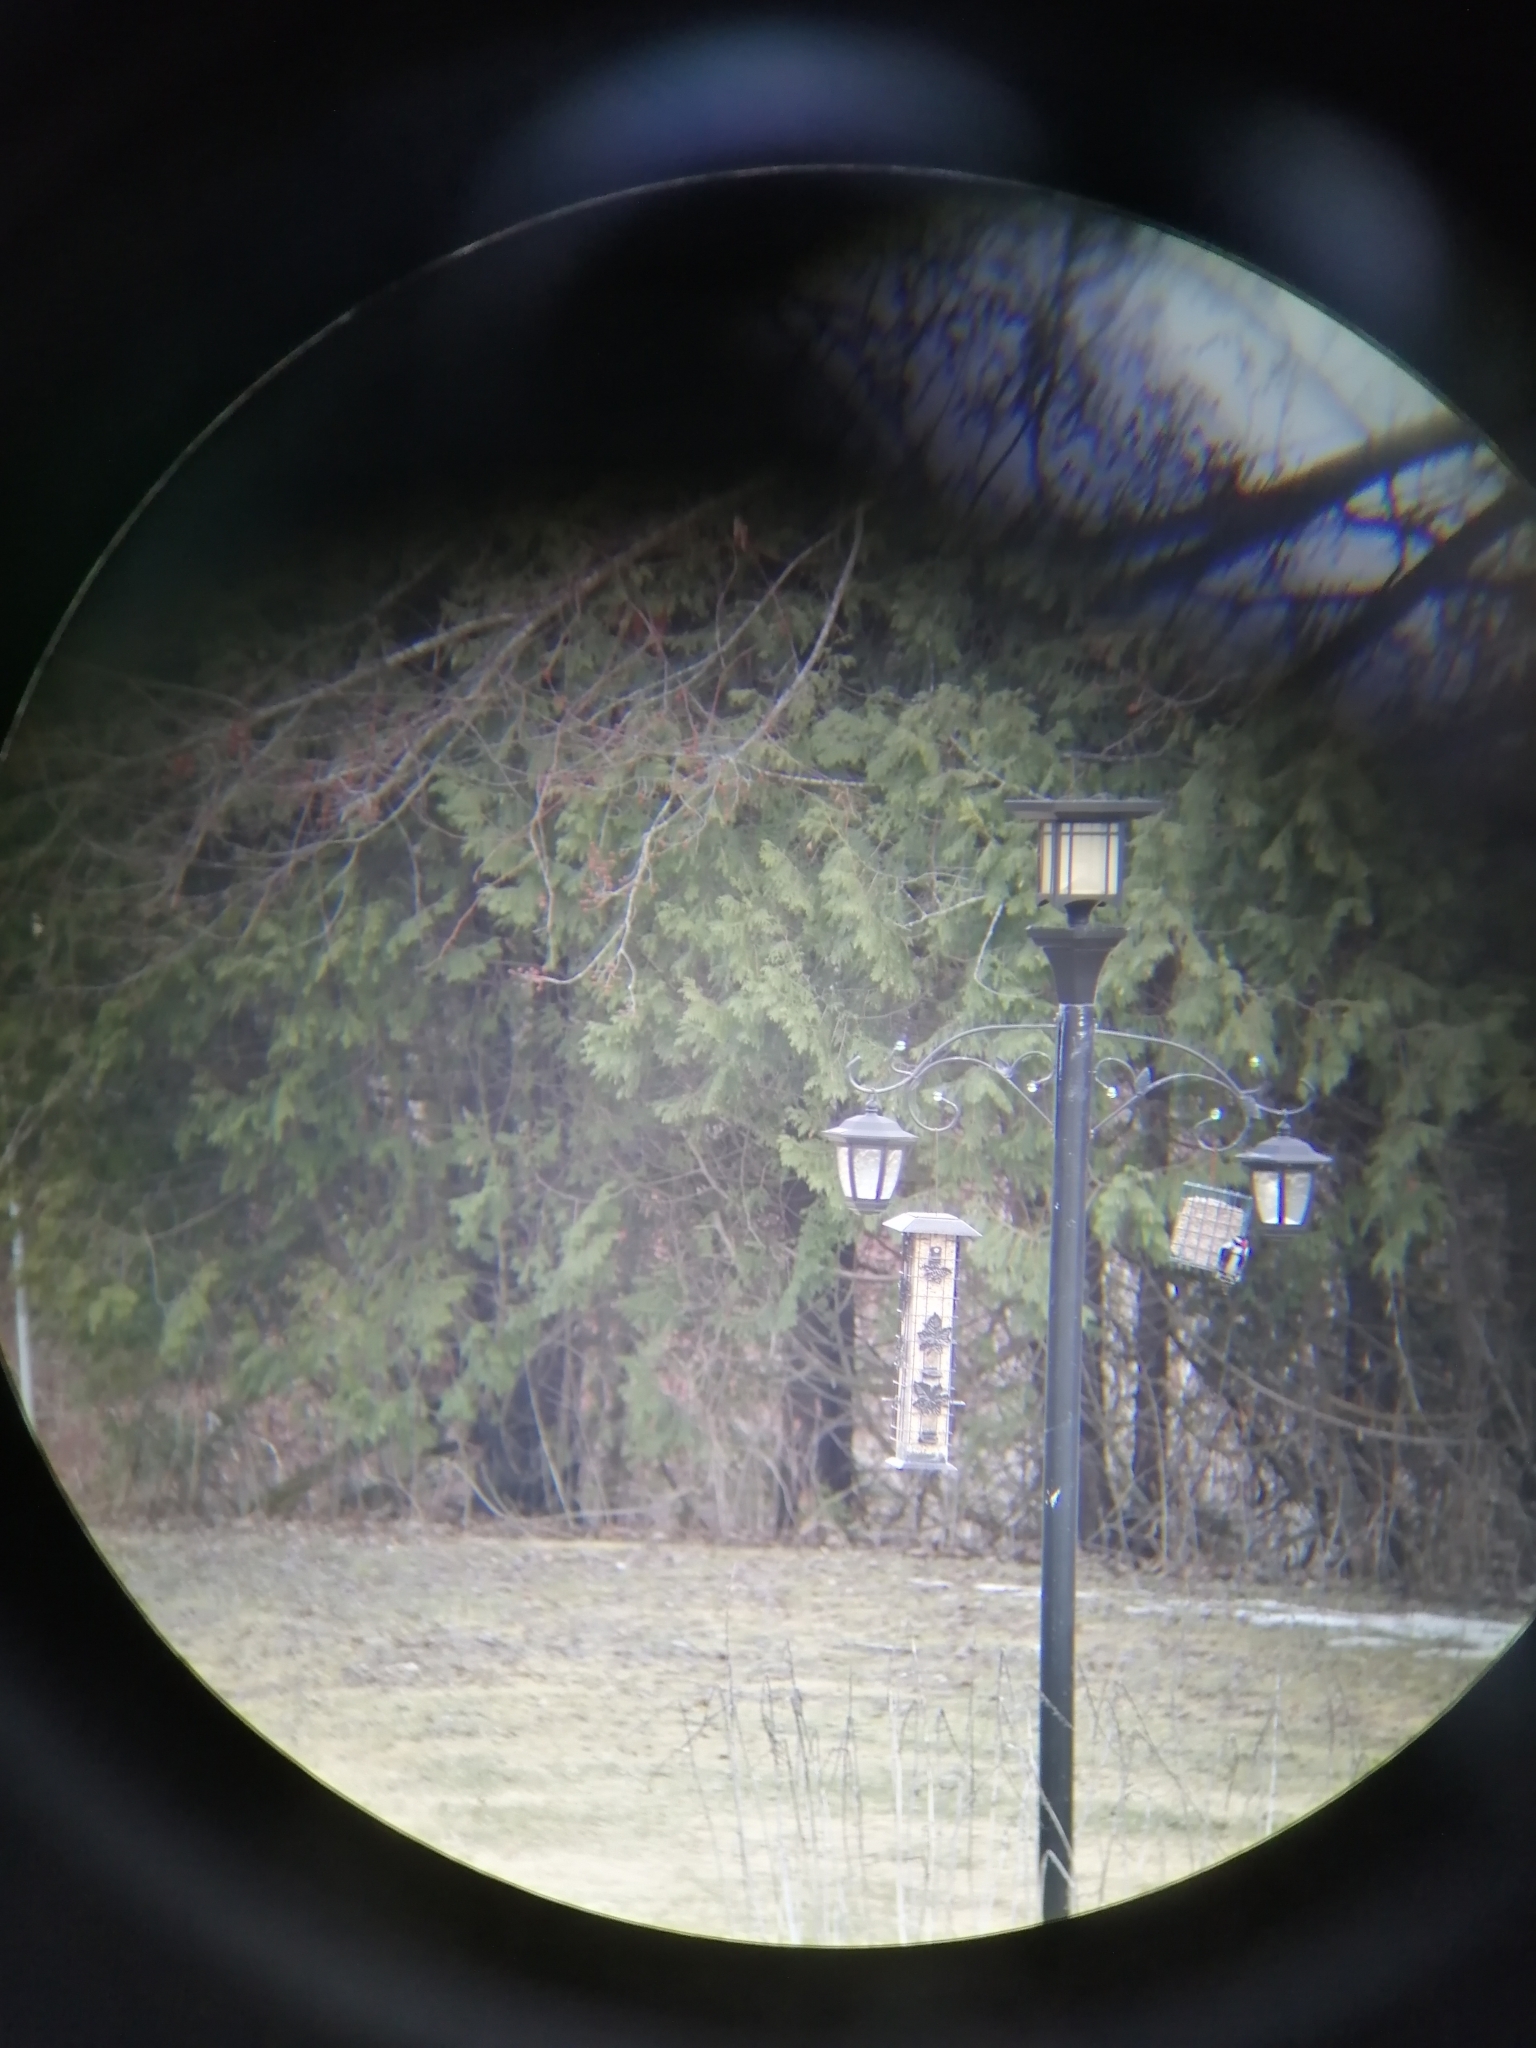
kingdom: Animalia
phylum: Chordata
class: Aves
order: Piciformes
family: Picidae
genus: Dryobates
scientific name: Dryobates pubescens
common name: Downy woodpecker
